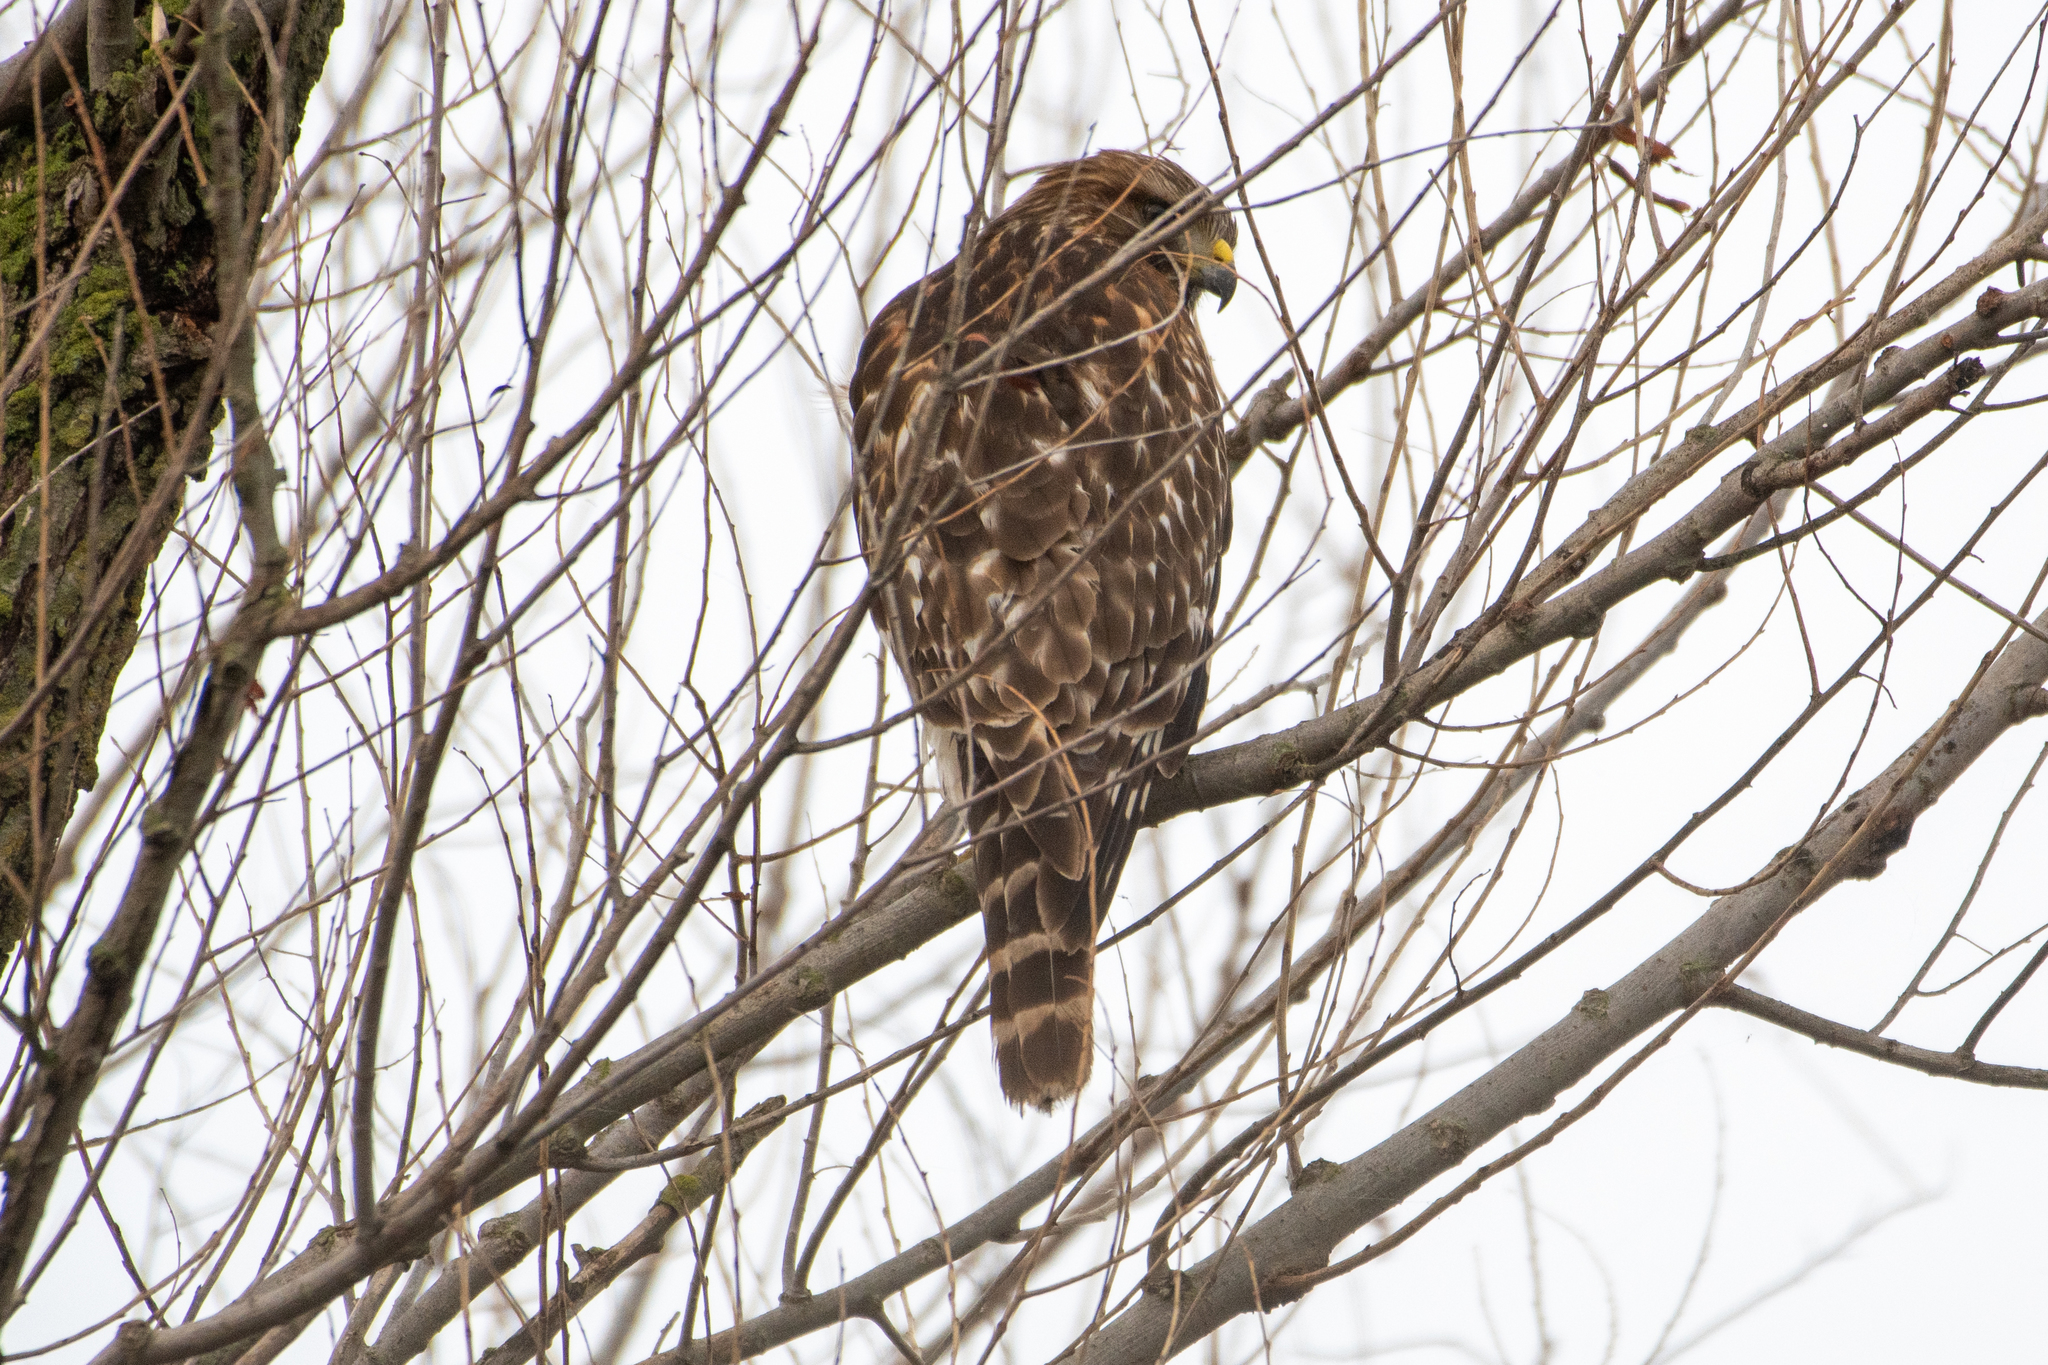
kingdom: Animalia
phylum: Chordata
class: Aves
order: Accipitriformes
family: Accipitridae
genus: Buteo
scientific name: Buteo lineatus
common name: Red-shouldered hawk
